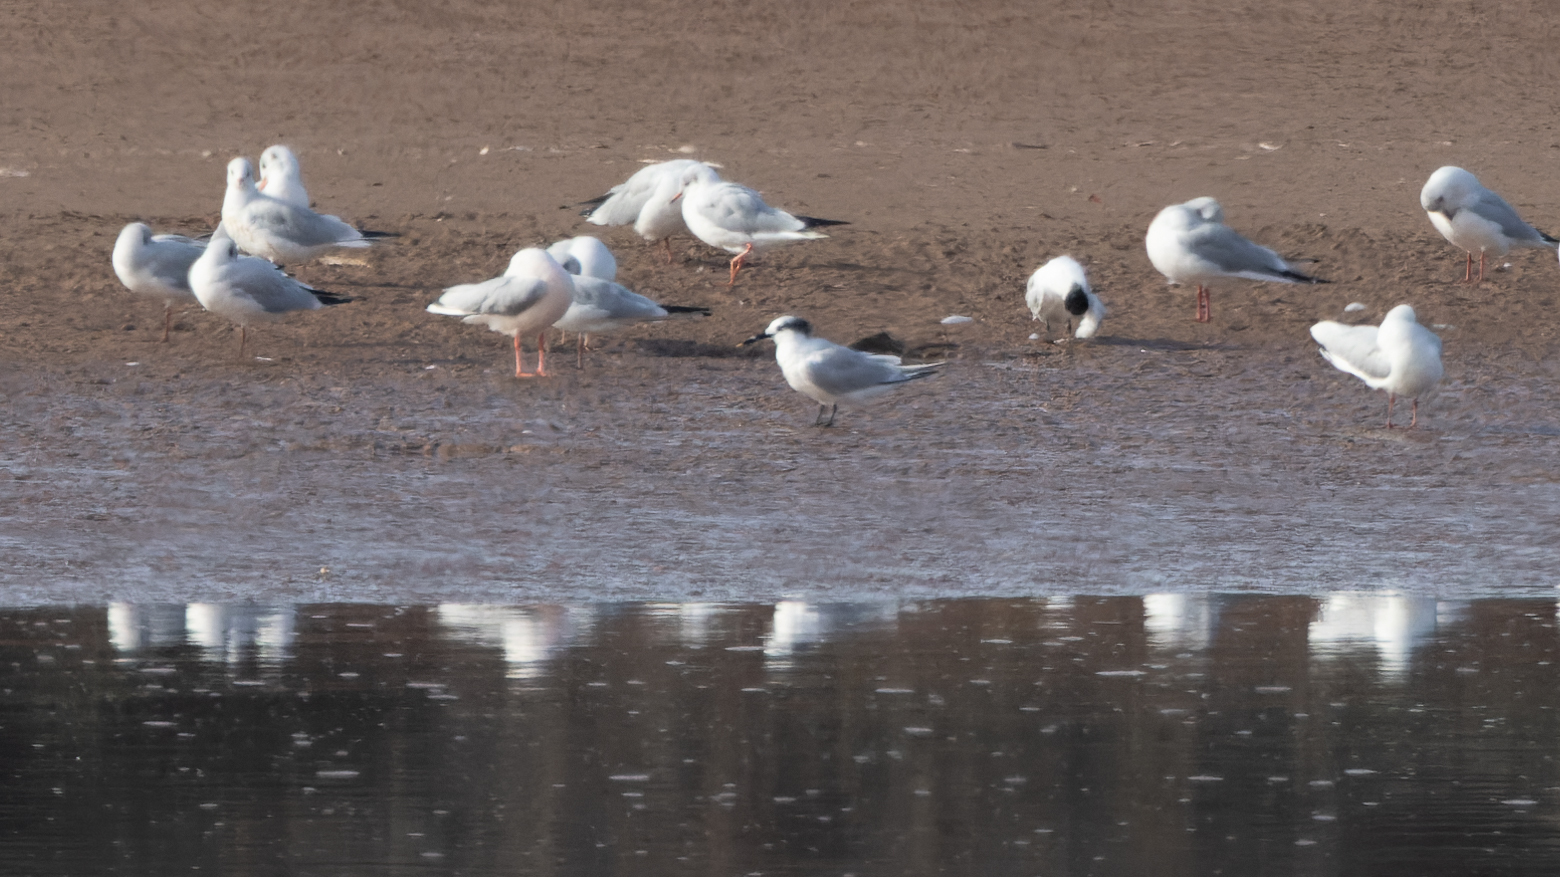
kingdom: Animalia
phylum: Chordata
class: Aves
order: Charadriiformes
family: Laridae
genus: Chroicocephalus
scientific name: Chroicocephalus ridibundus
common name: Black-headed gull
